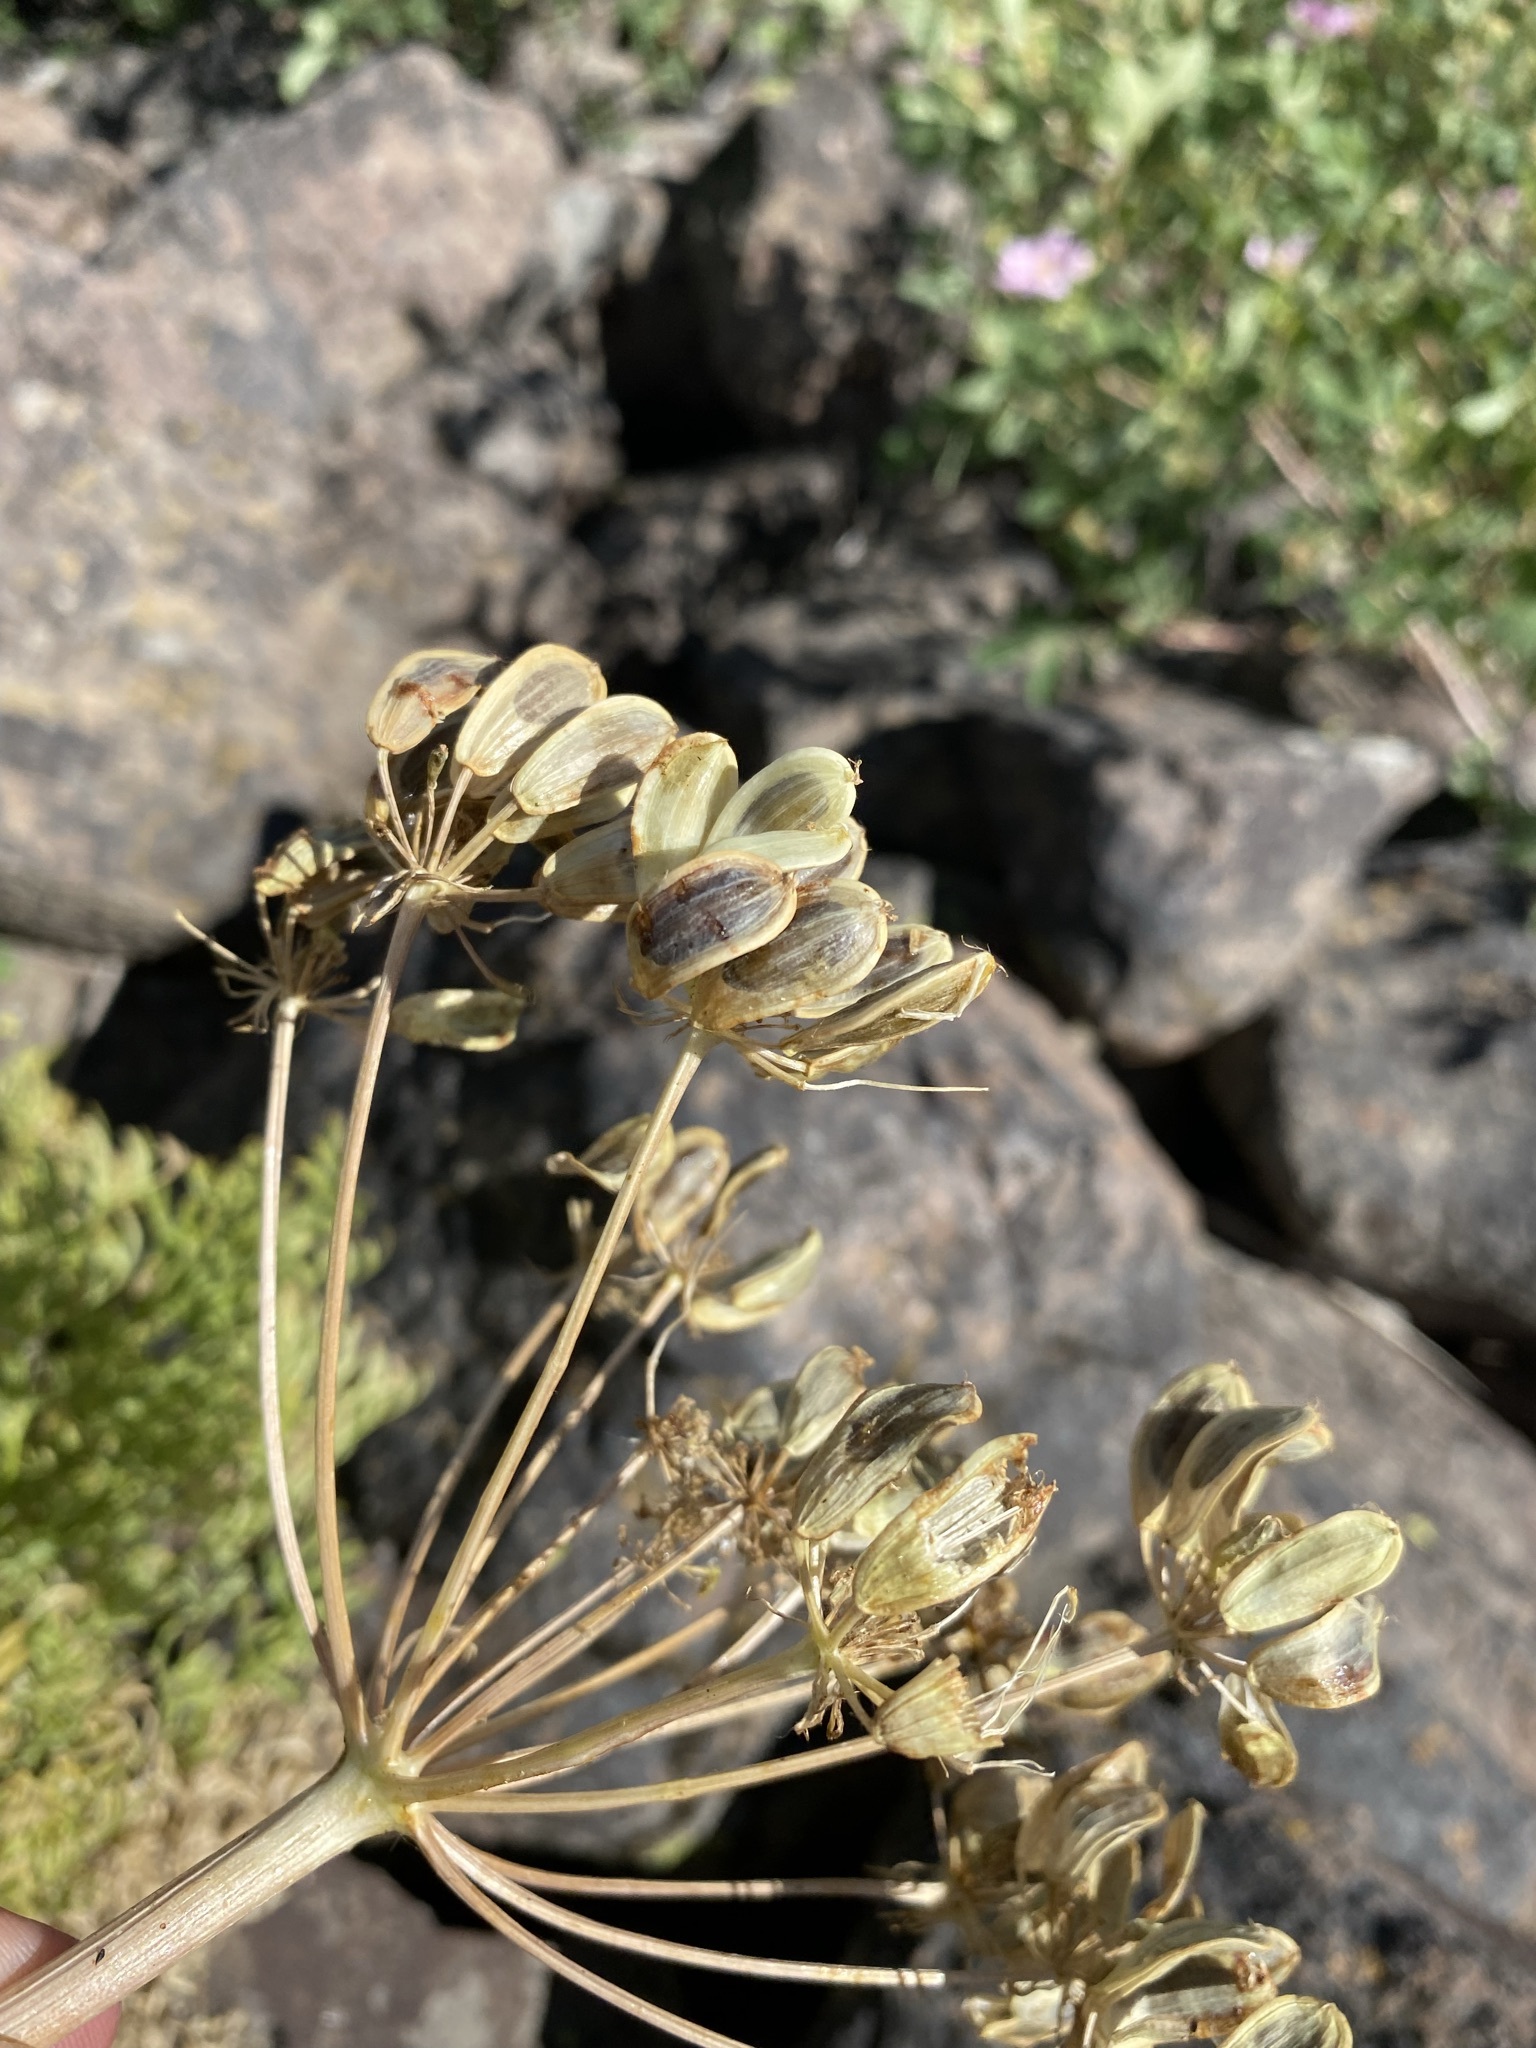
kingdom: Plantae
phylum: Tracheophyta
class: Magnoliopsida
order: Apiales
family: Apiaceae
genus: Lomatium
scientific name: Lomatium multifidum
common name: Carrot-leaved biscuitroot
